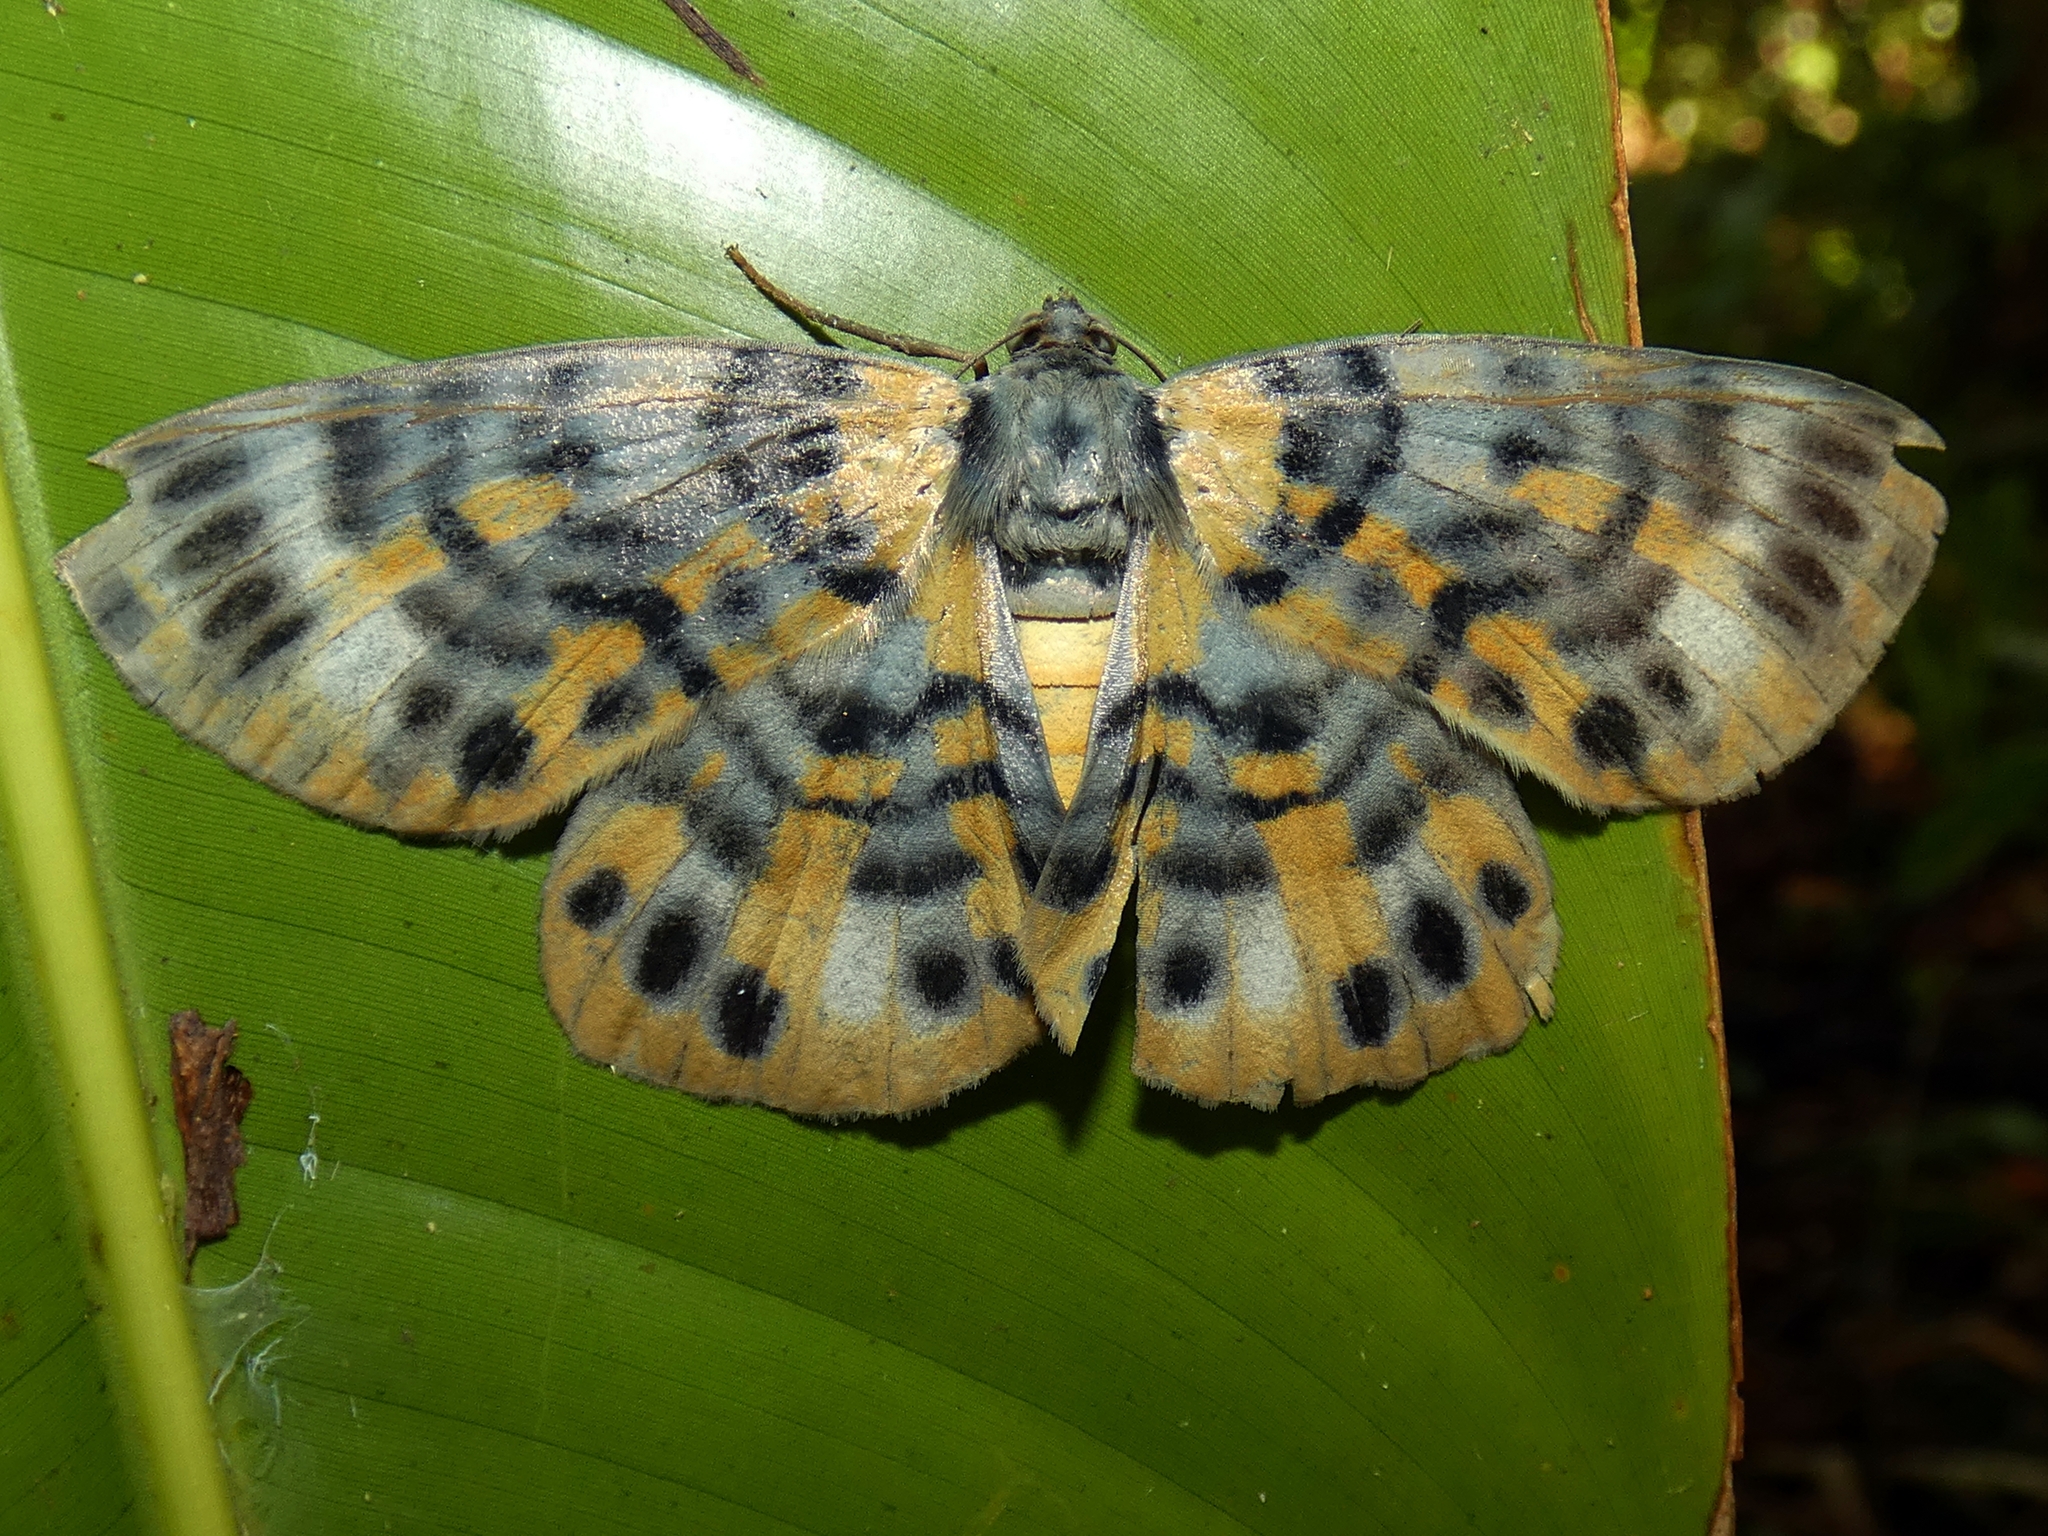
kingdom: Animalia
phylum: Arthropoda
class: Insecta
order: Lepidoptera
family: Geometridae
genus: Bracca
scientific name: Bracca rotundata
